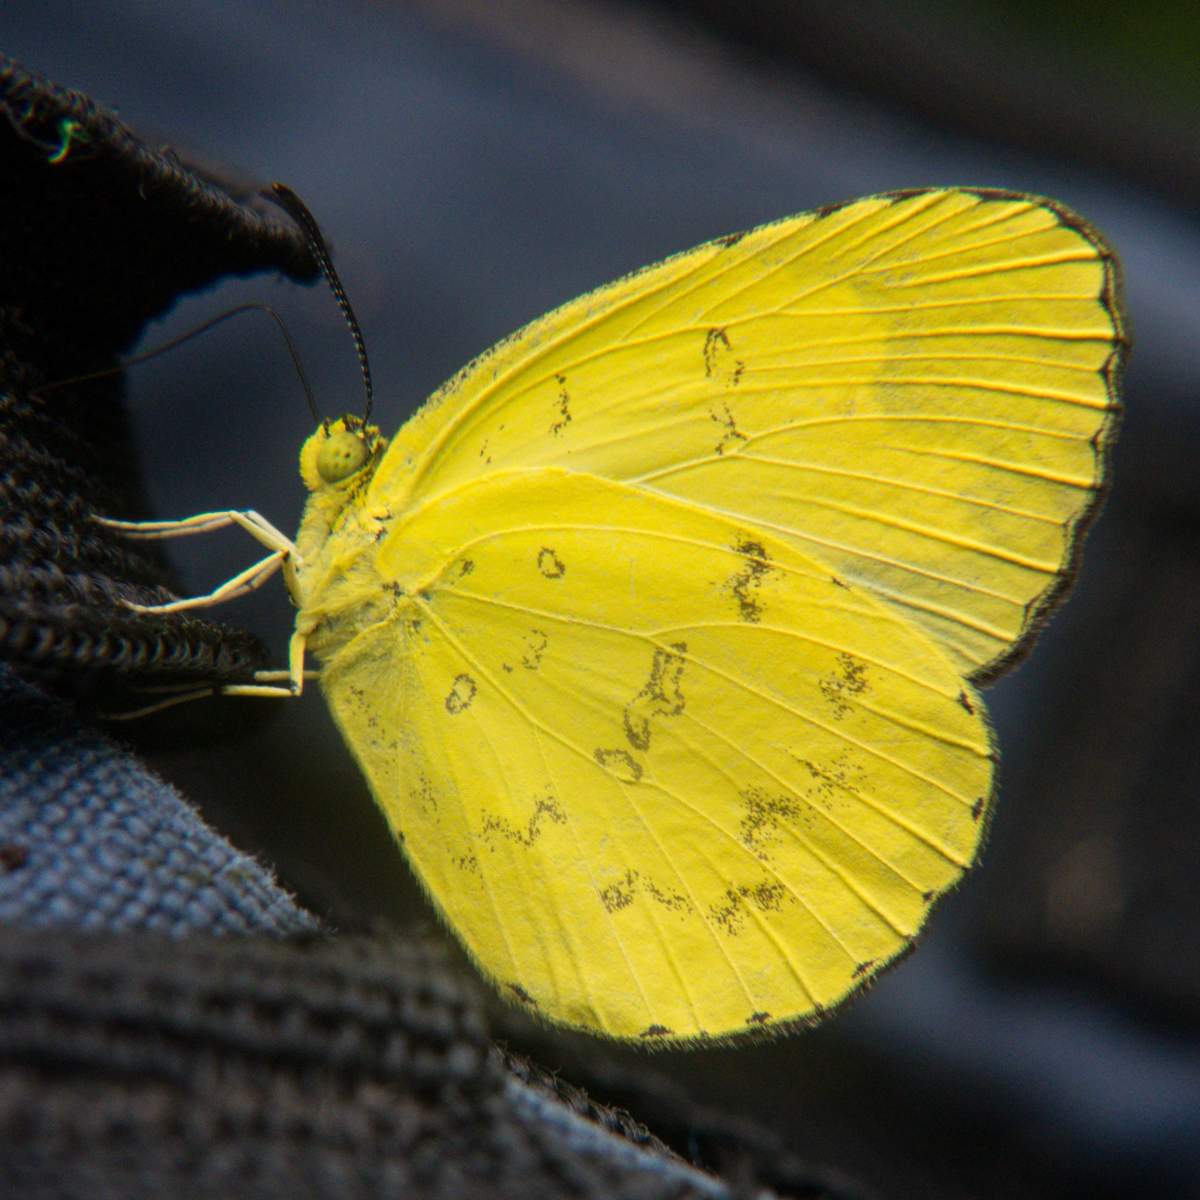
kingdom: Animalia
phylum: Arthropoda
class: Insecta
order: Lepidoptera
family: Pieridae
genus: Eurema
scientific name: Eurema simulatrix
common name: Hill grass yellow
